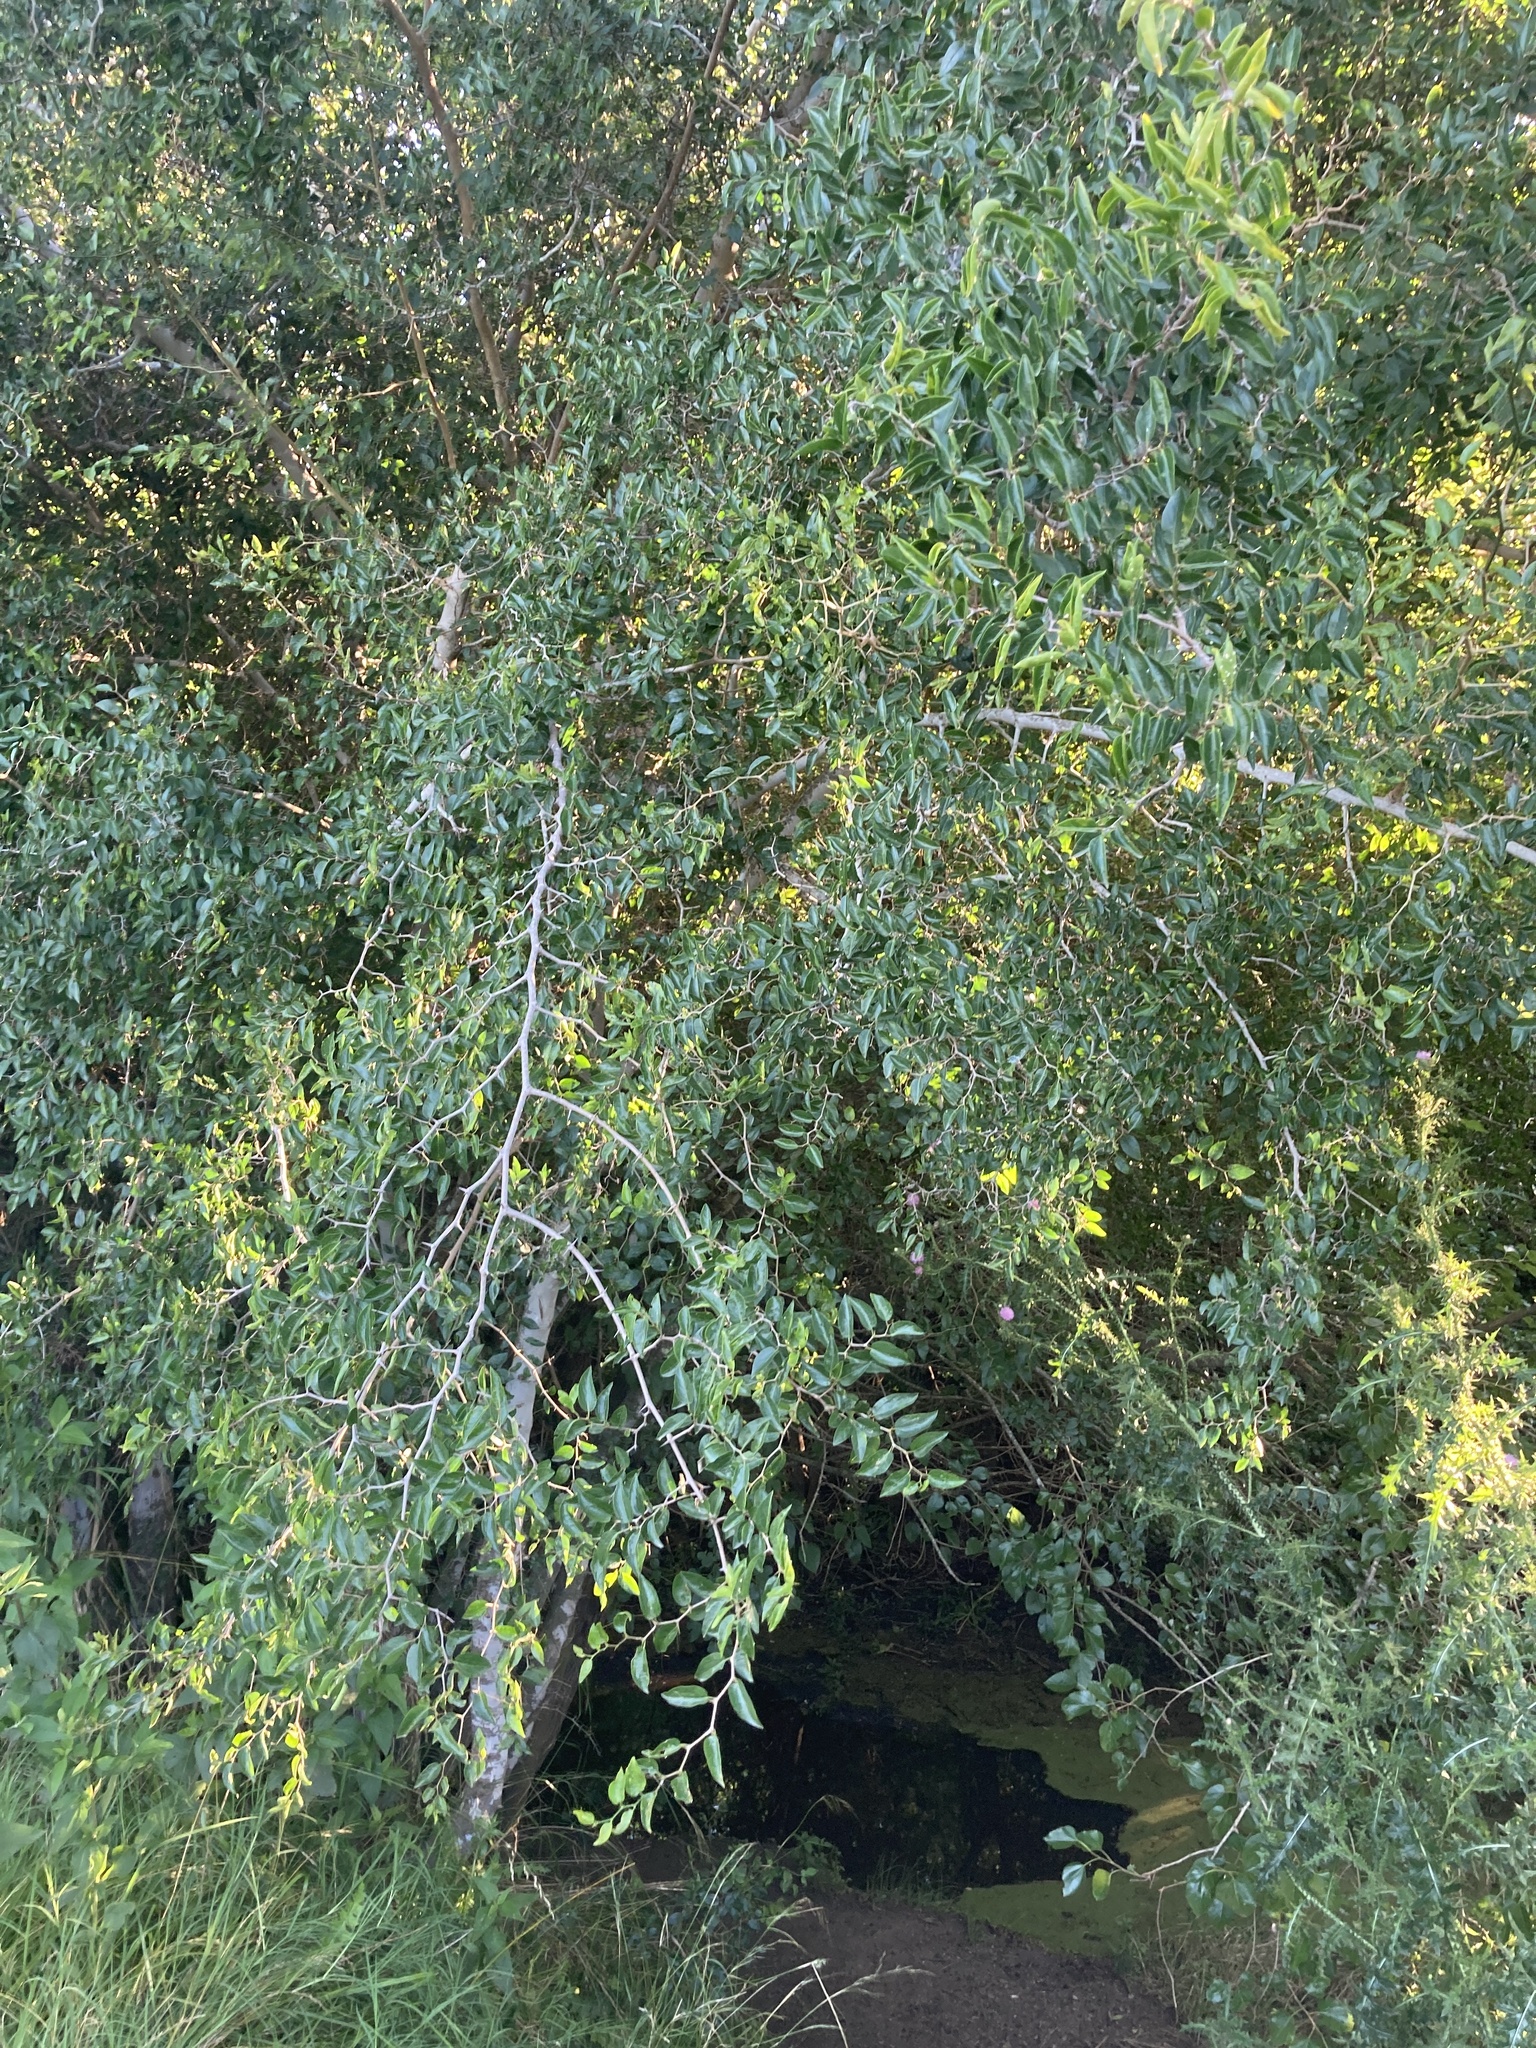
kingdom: Plantae
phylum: Tracheophyta
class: Magnoliopsida
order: Rosales
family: Cannabaceae
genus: Celtis
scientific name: Celtis tala
